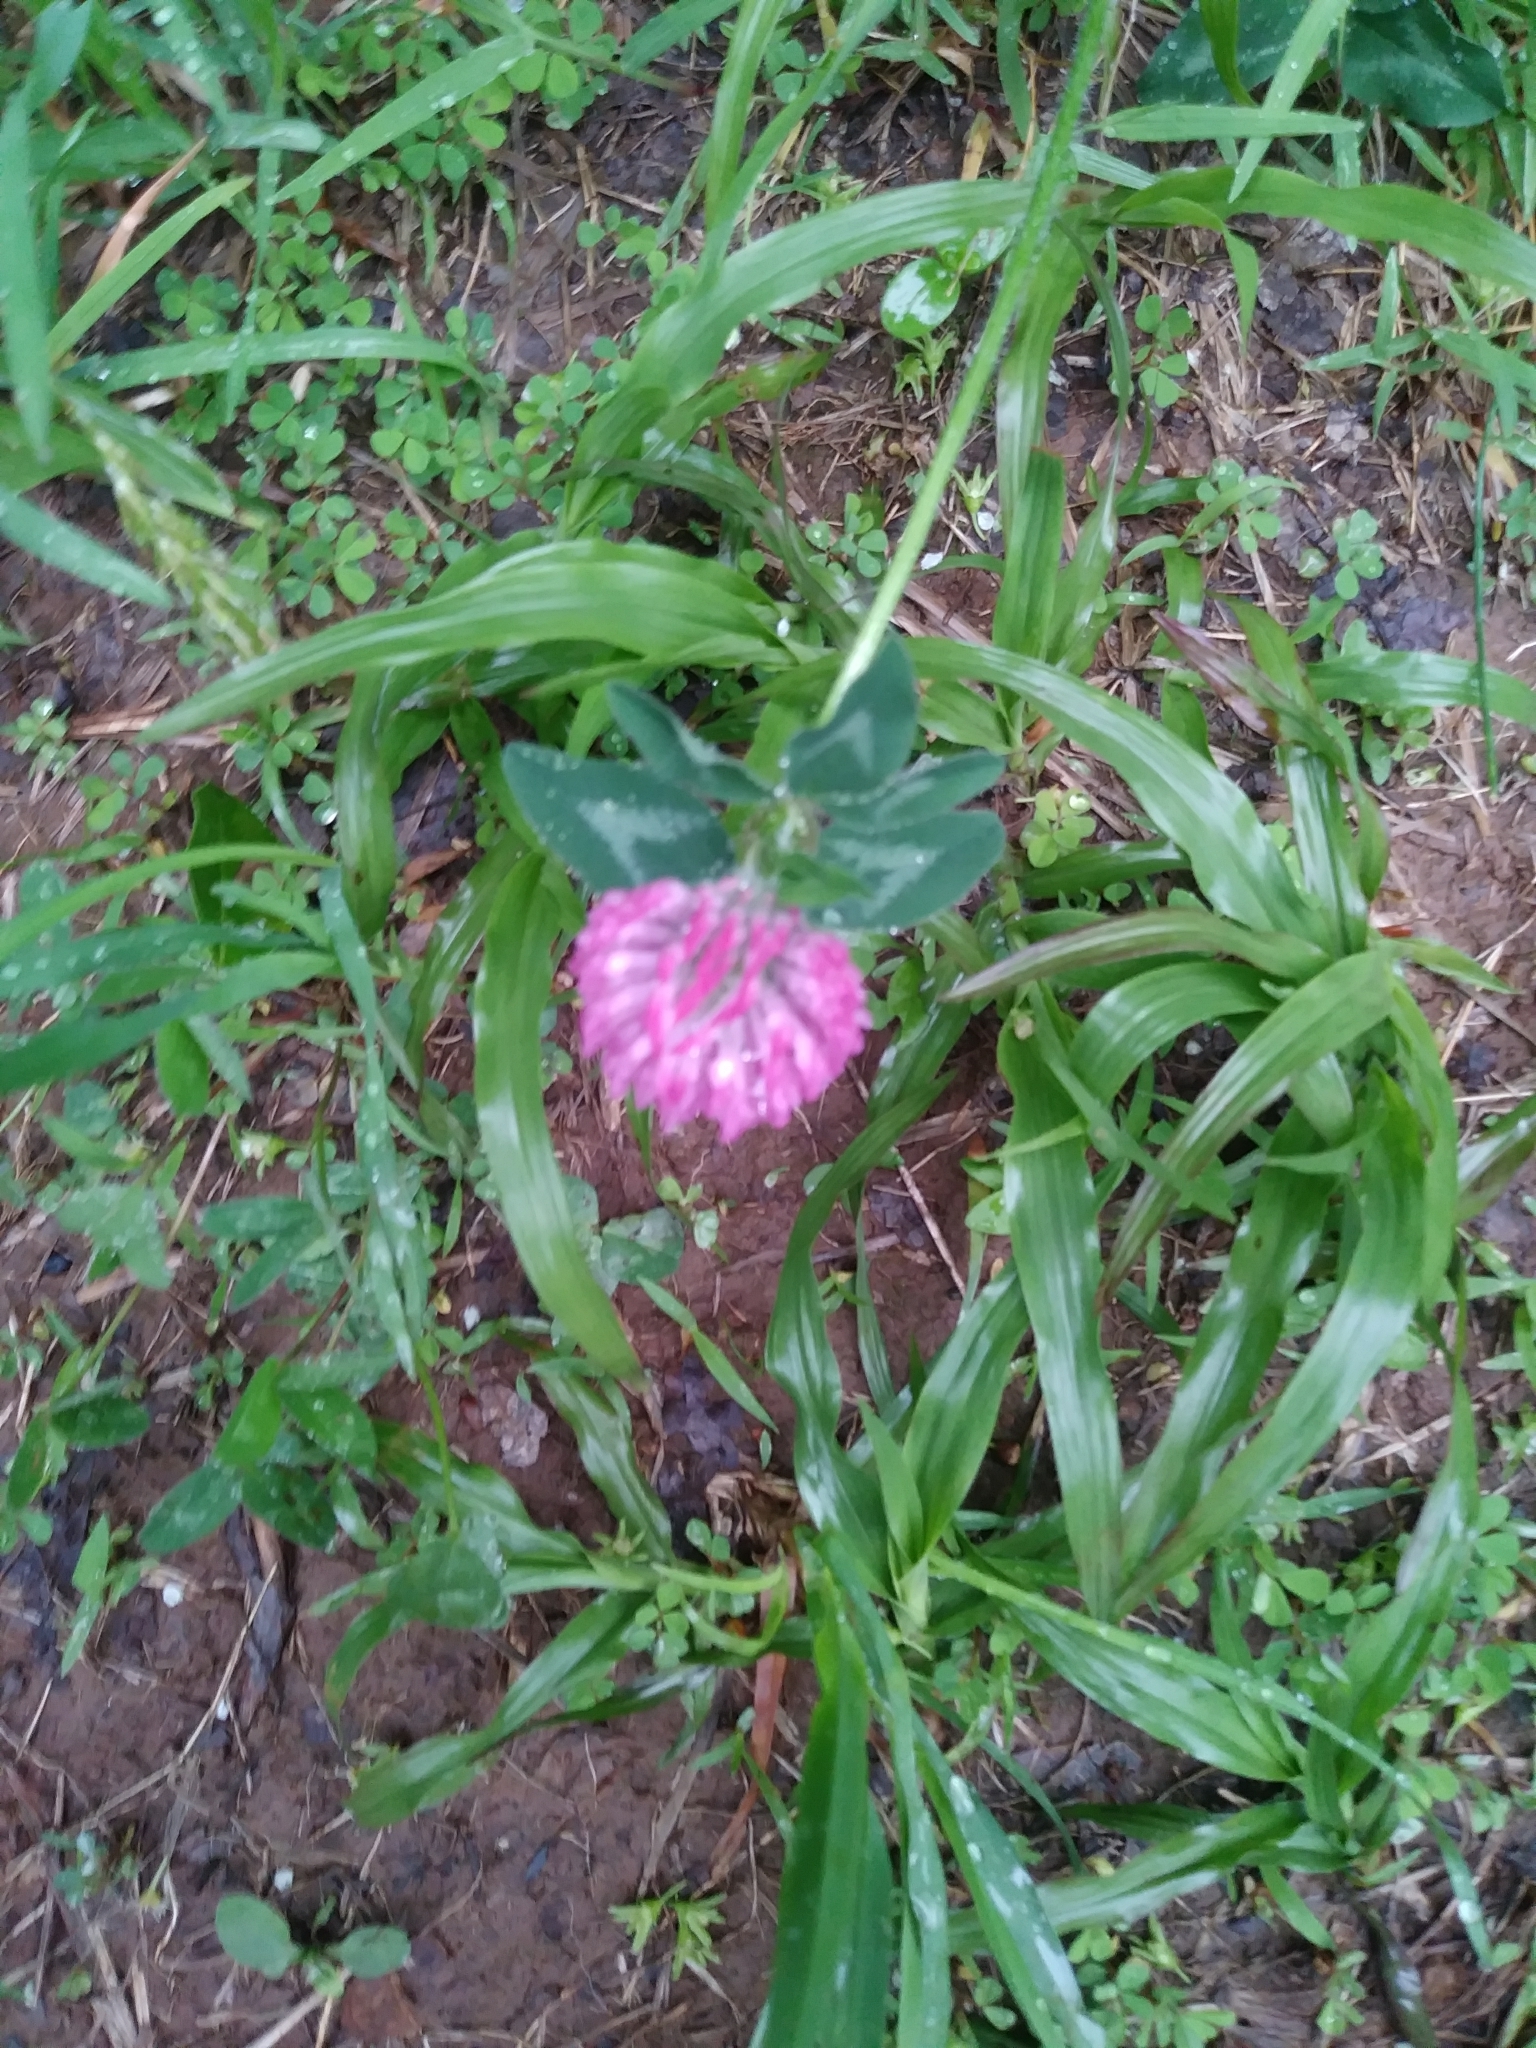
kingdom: Plantae
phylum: Tracheophyta
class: Magnoliopsida
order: Fabales
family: Fabaceae
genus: Trifolium
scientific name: Trifolium pratense
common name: Red clover
